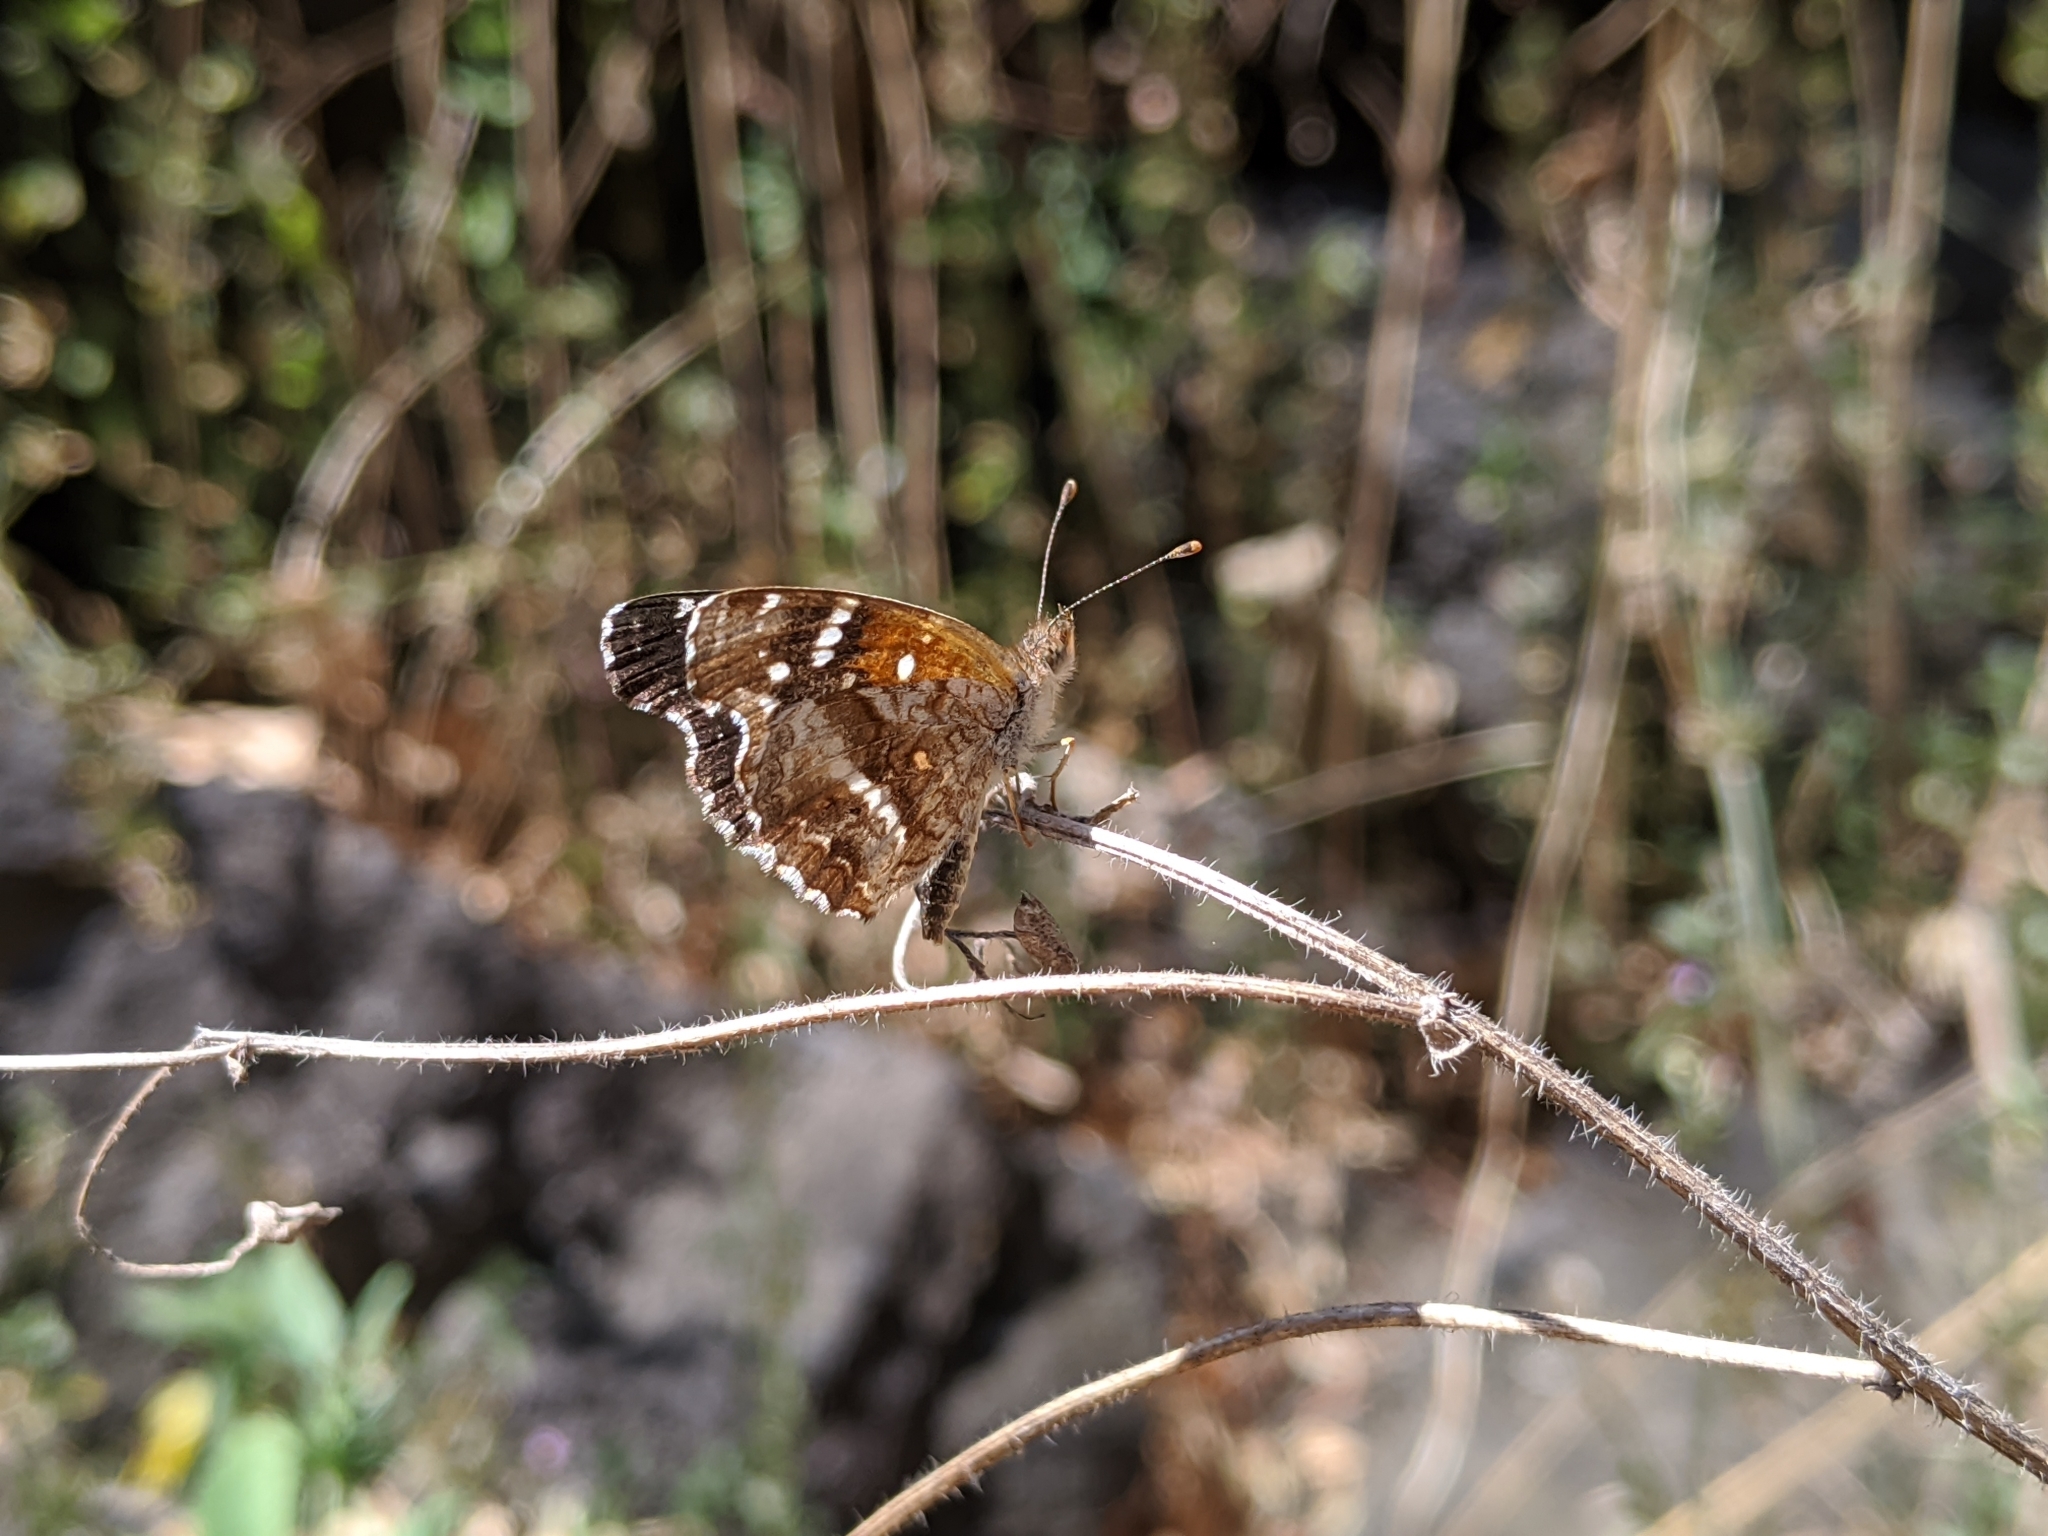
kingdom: Animalia
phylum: Arthropoda
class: Insecta
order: Lepidoptera
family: Nymphalidae
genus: Anthanassa
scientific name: Anthanassa texana
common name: Texan crescent
